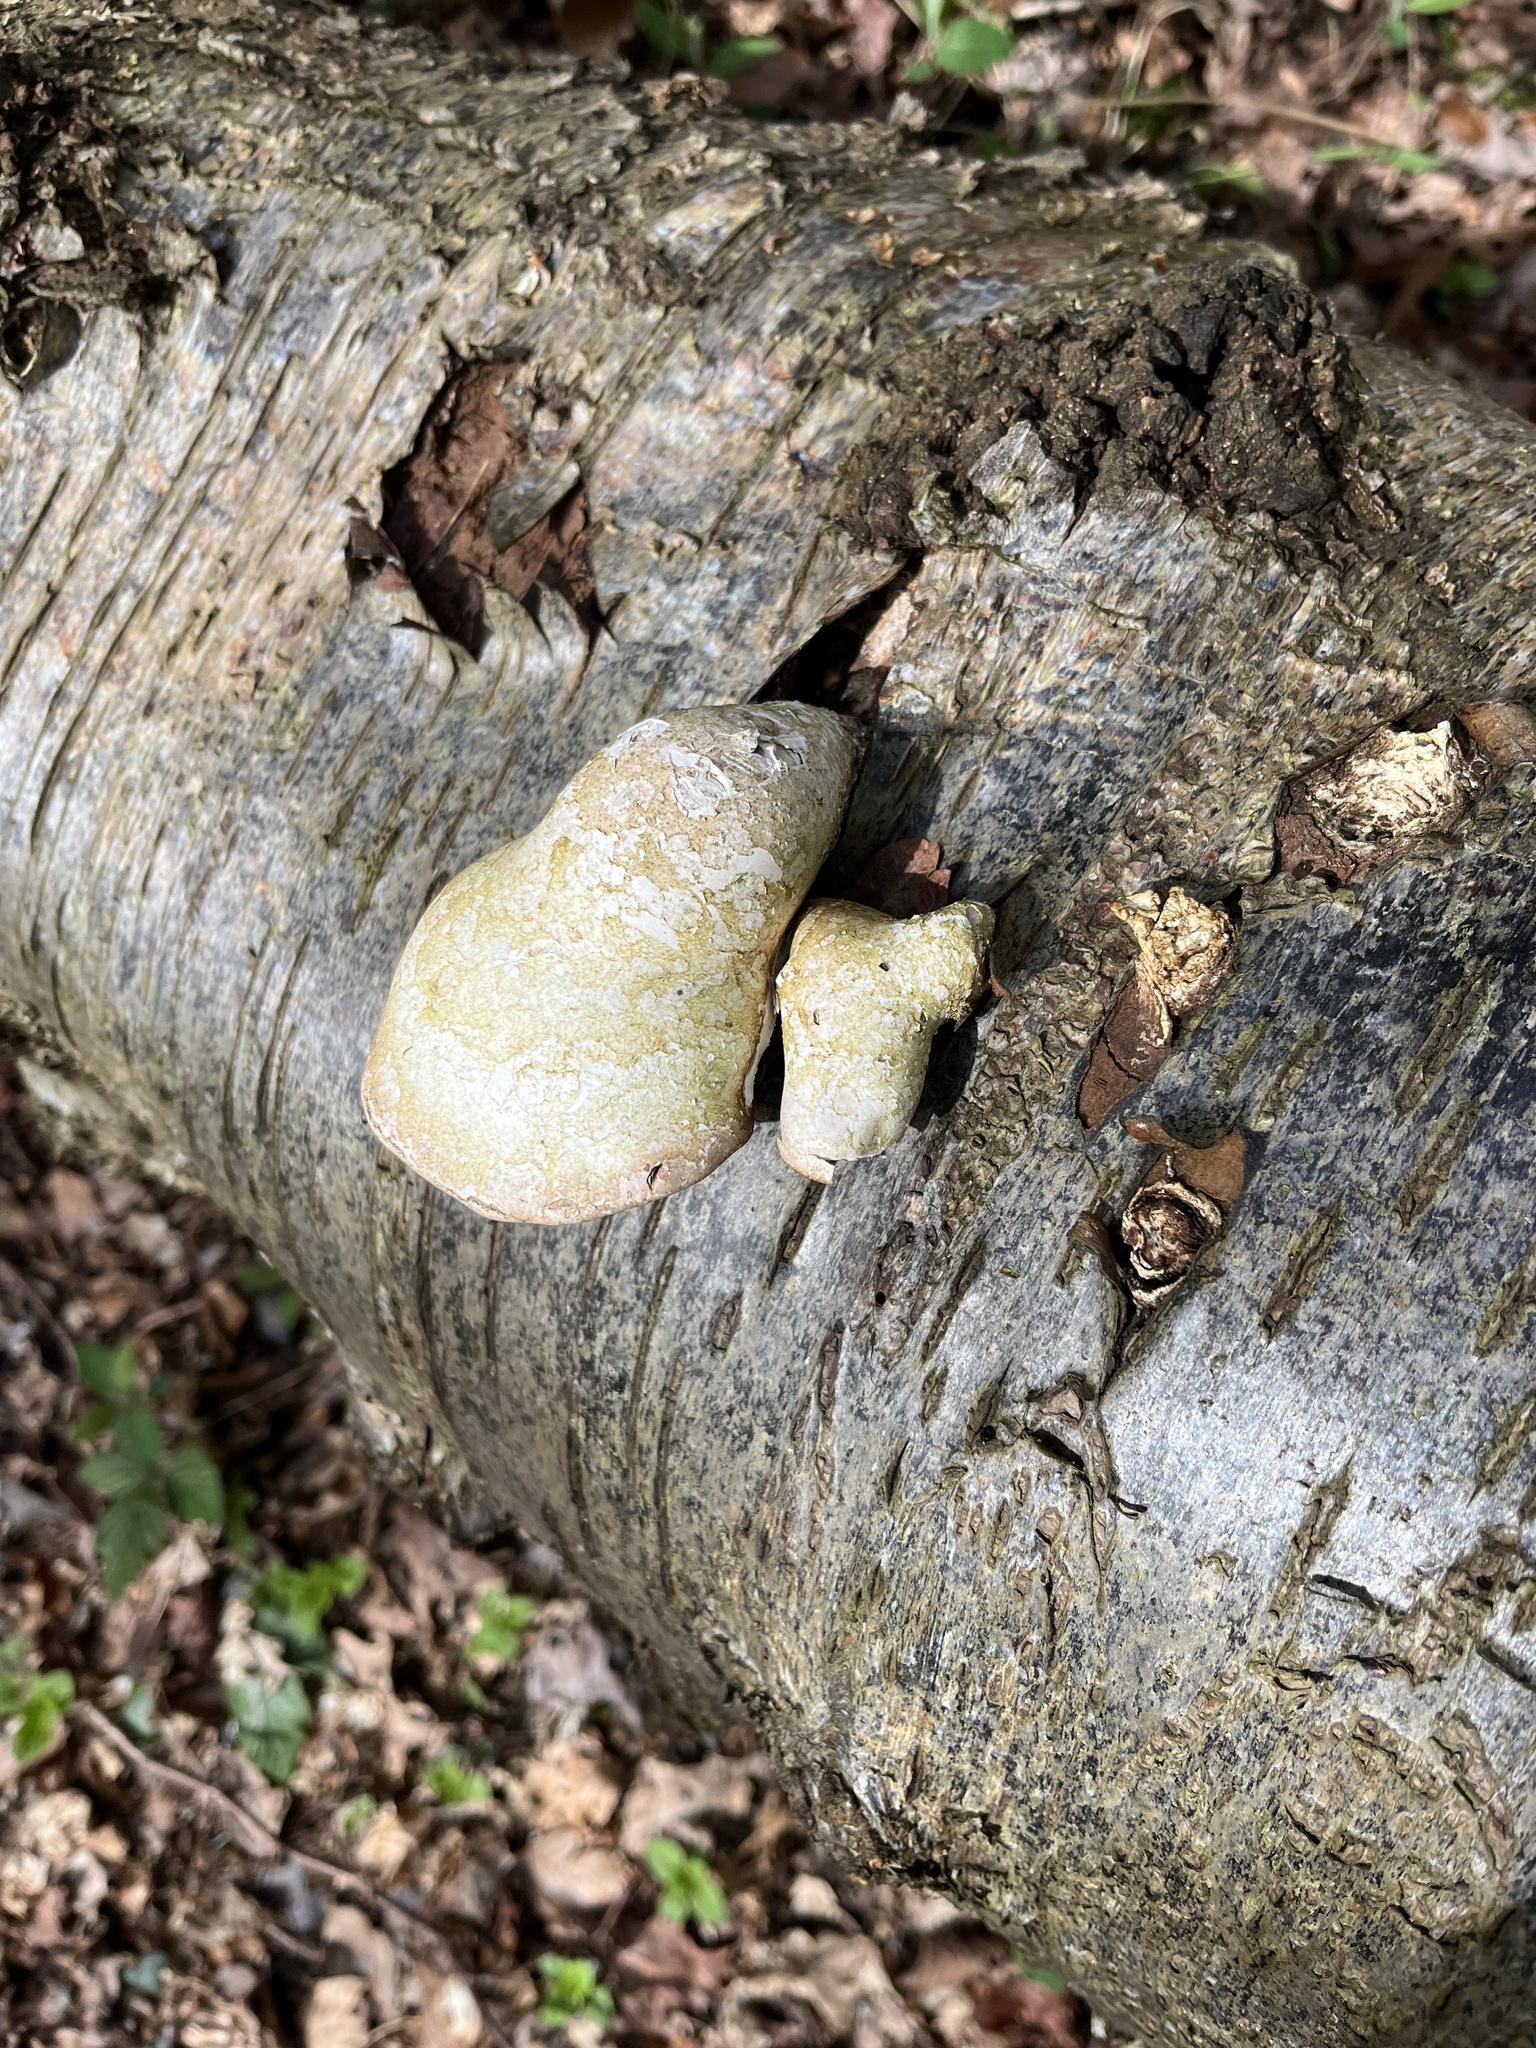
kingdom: Fungi
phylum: Basidiomycota
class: Agaricomycetes
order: Polyporales
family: Fomitopsidaceae
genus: Fomitopsis
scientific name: Fomitopsis betulina
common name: Birch polypore
